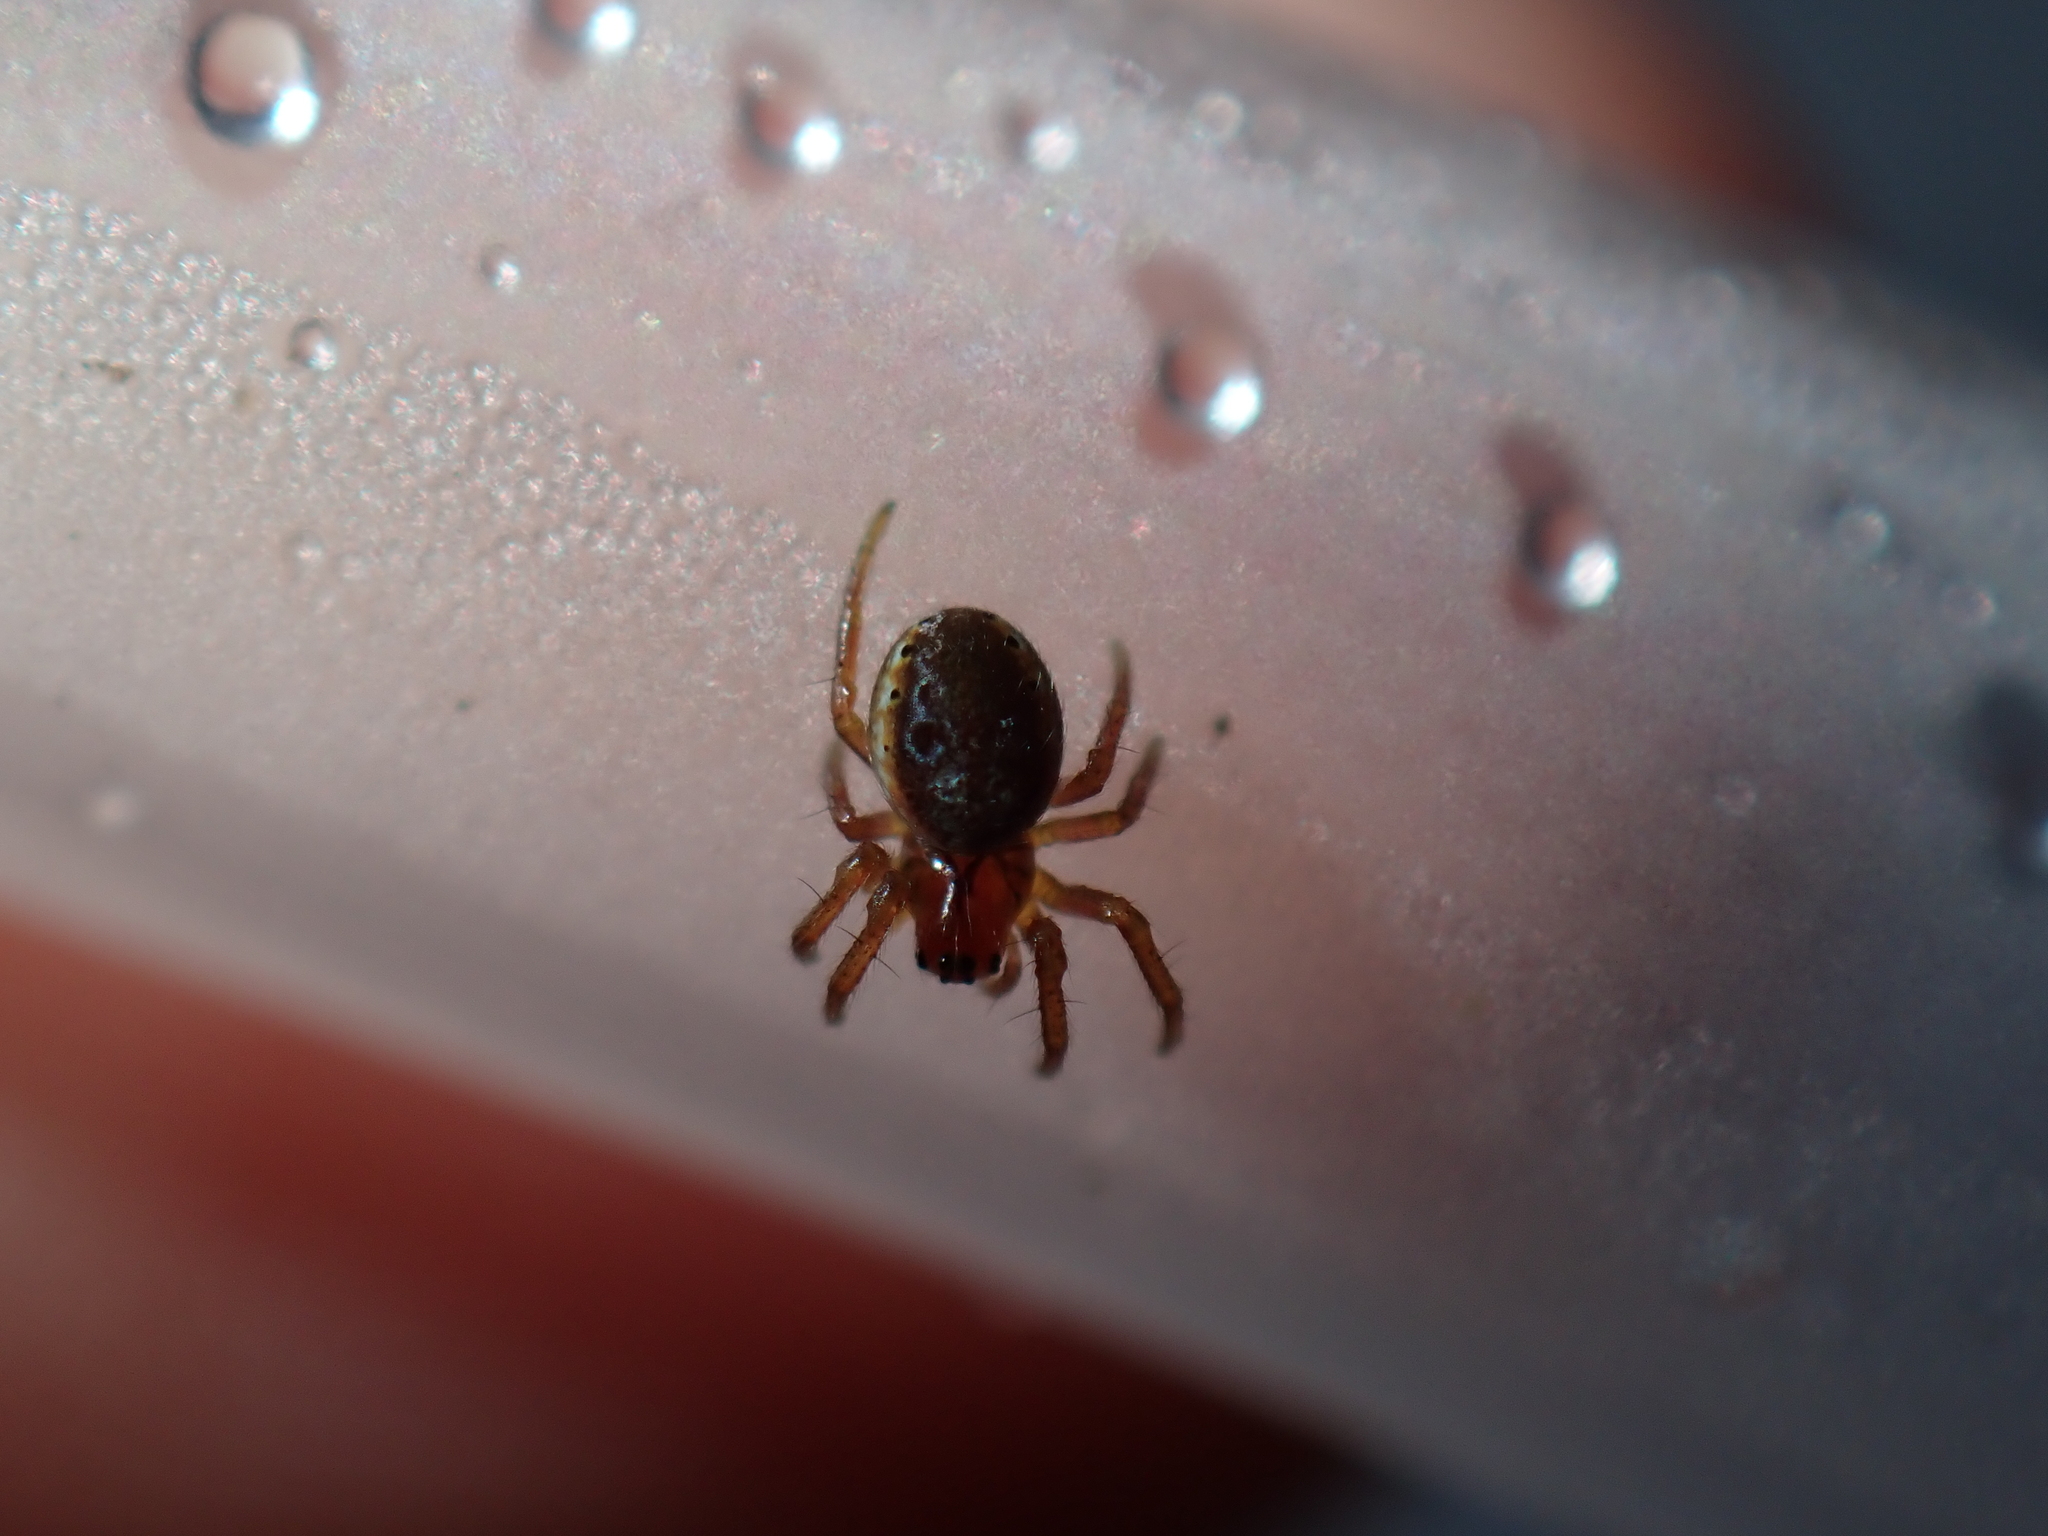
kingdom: Animalia
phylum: Arthropoda
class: Arachnida
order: Araneae
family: Araneidae
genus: Araniella
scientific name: Araniella
